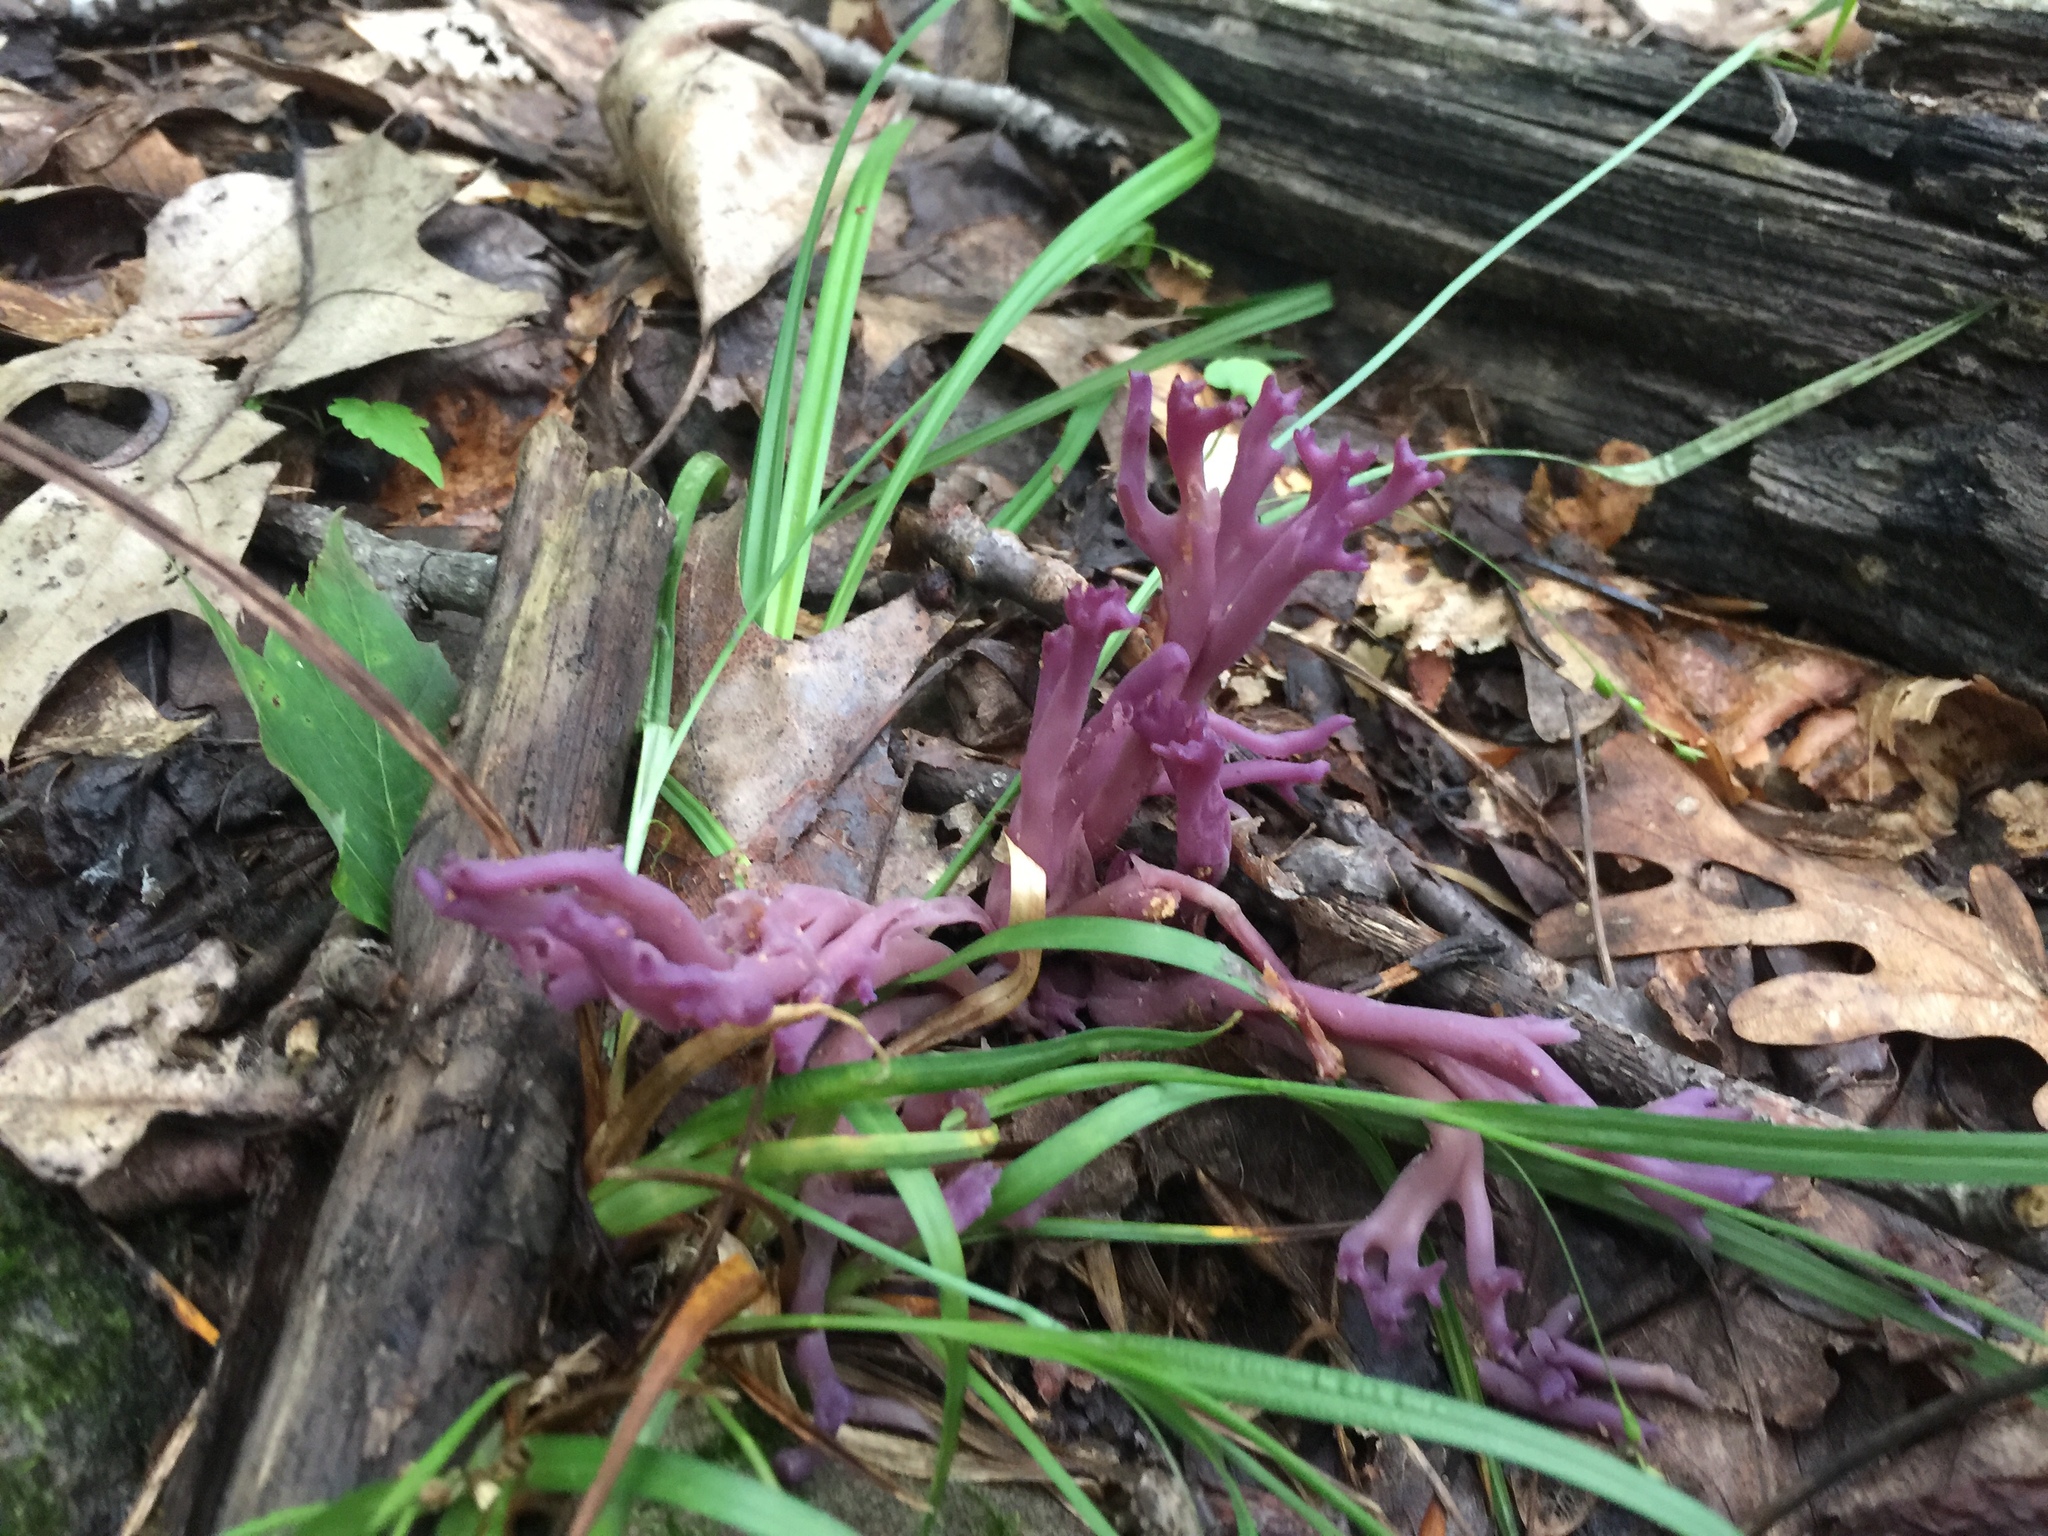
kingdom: Fungi
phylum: Basidiomycota
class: Agaricomycetes
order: Agaricales
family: Clavariaceae
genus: Clavaria
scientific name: Clavaria zollingeri
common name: Violet coral
